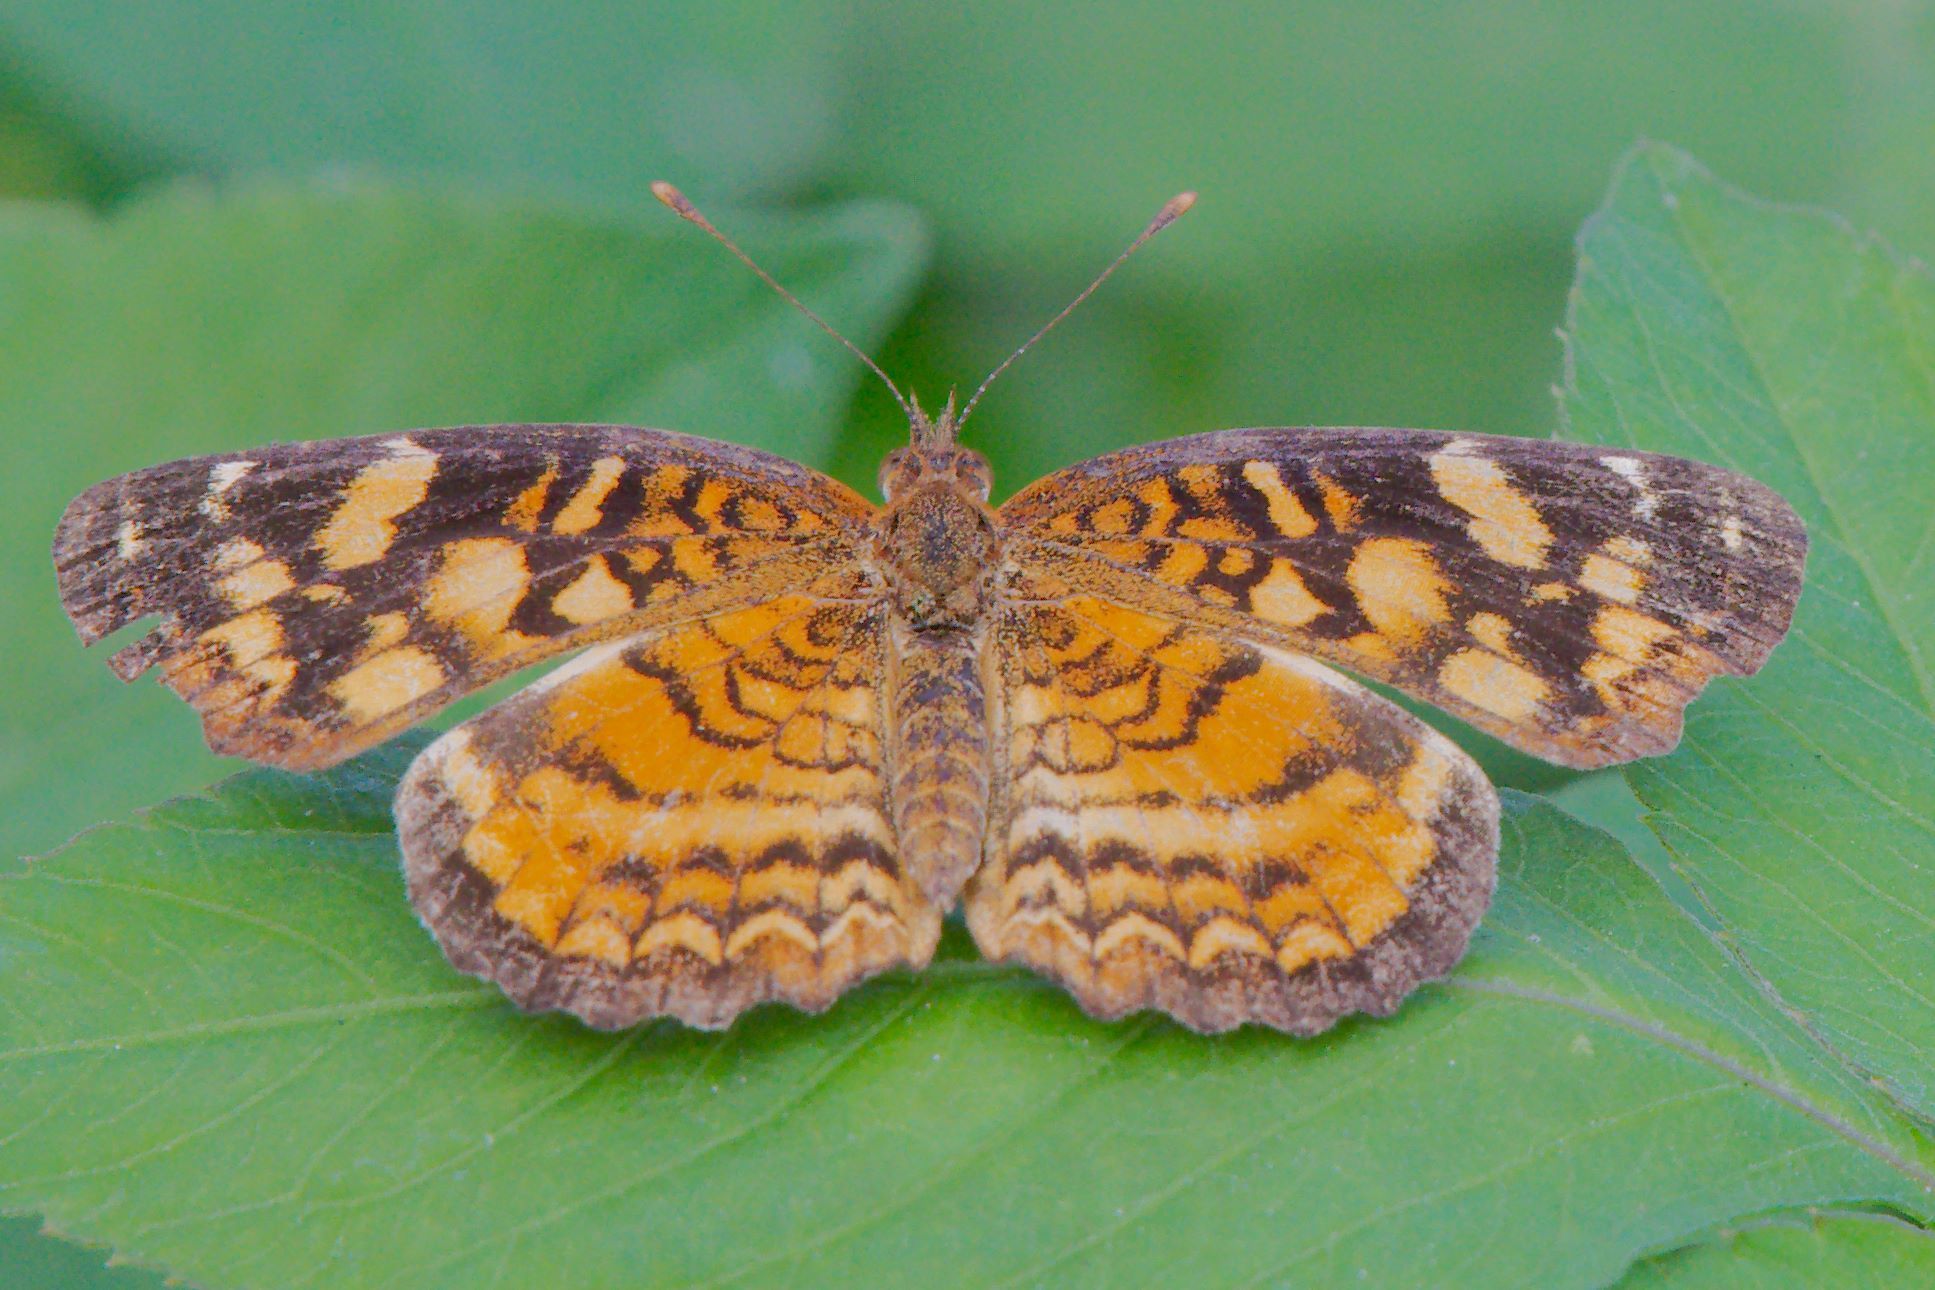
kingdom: Animalia
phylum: Arthropoda
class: Insecta
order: Lepidoptera
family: Nymphalidae
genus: Anthanassa
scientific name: Anthanassa frisia
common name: Cuban crescent
